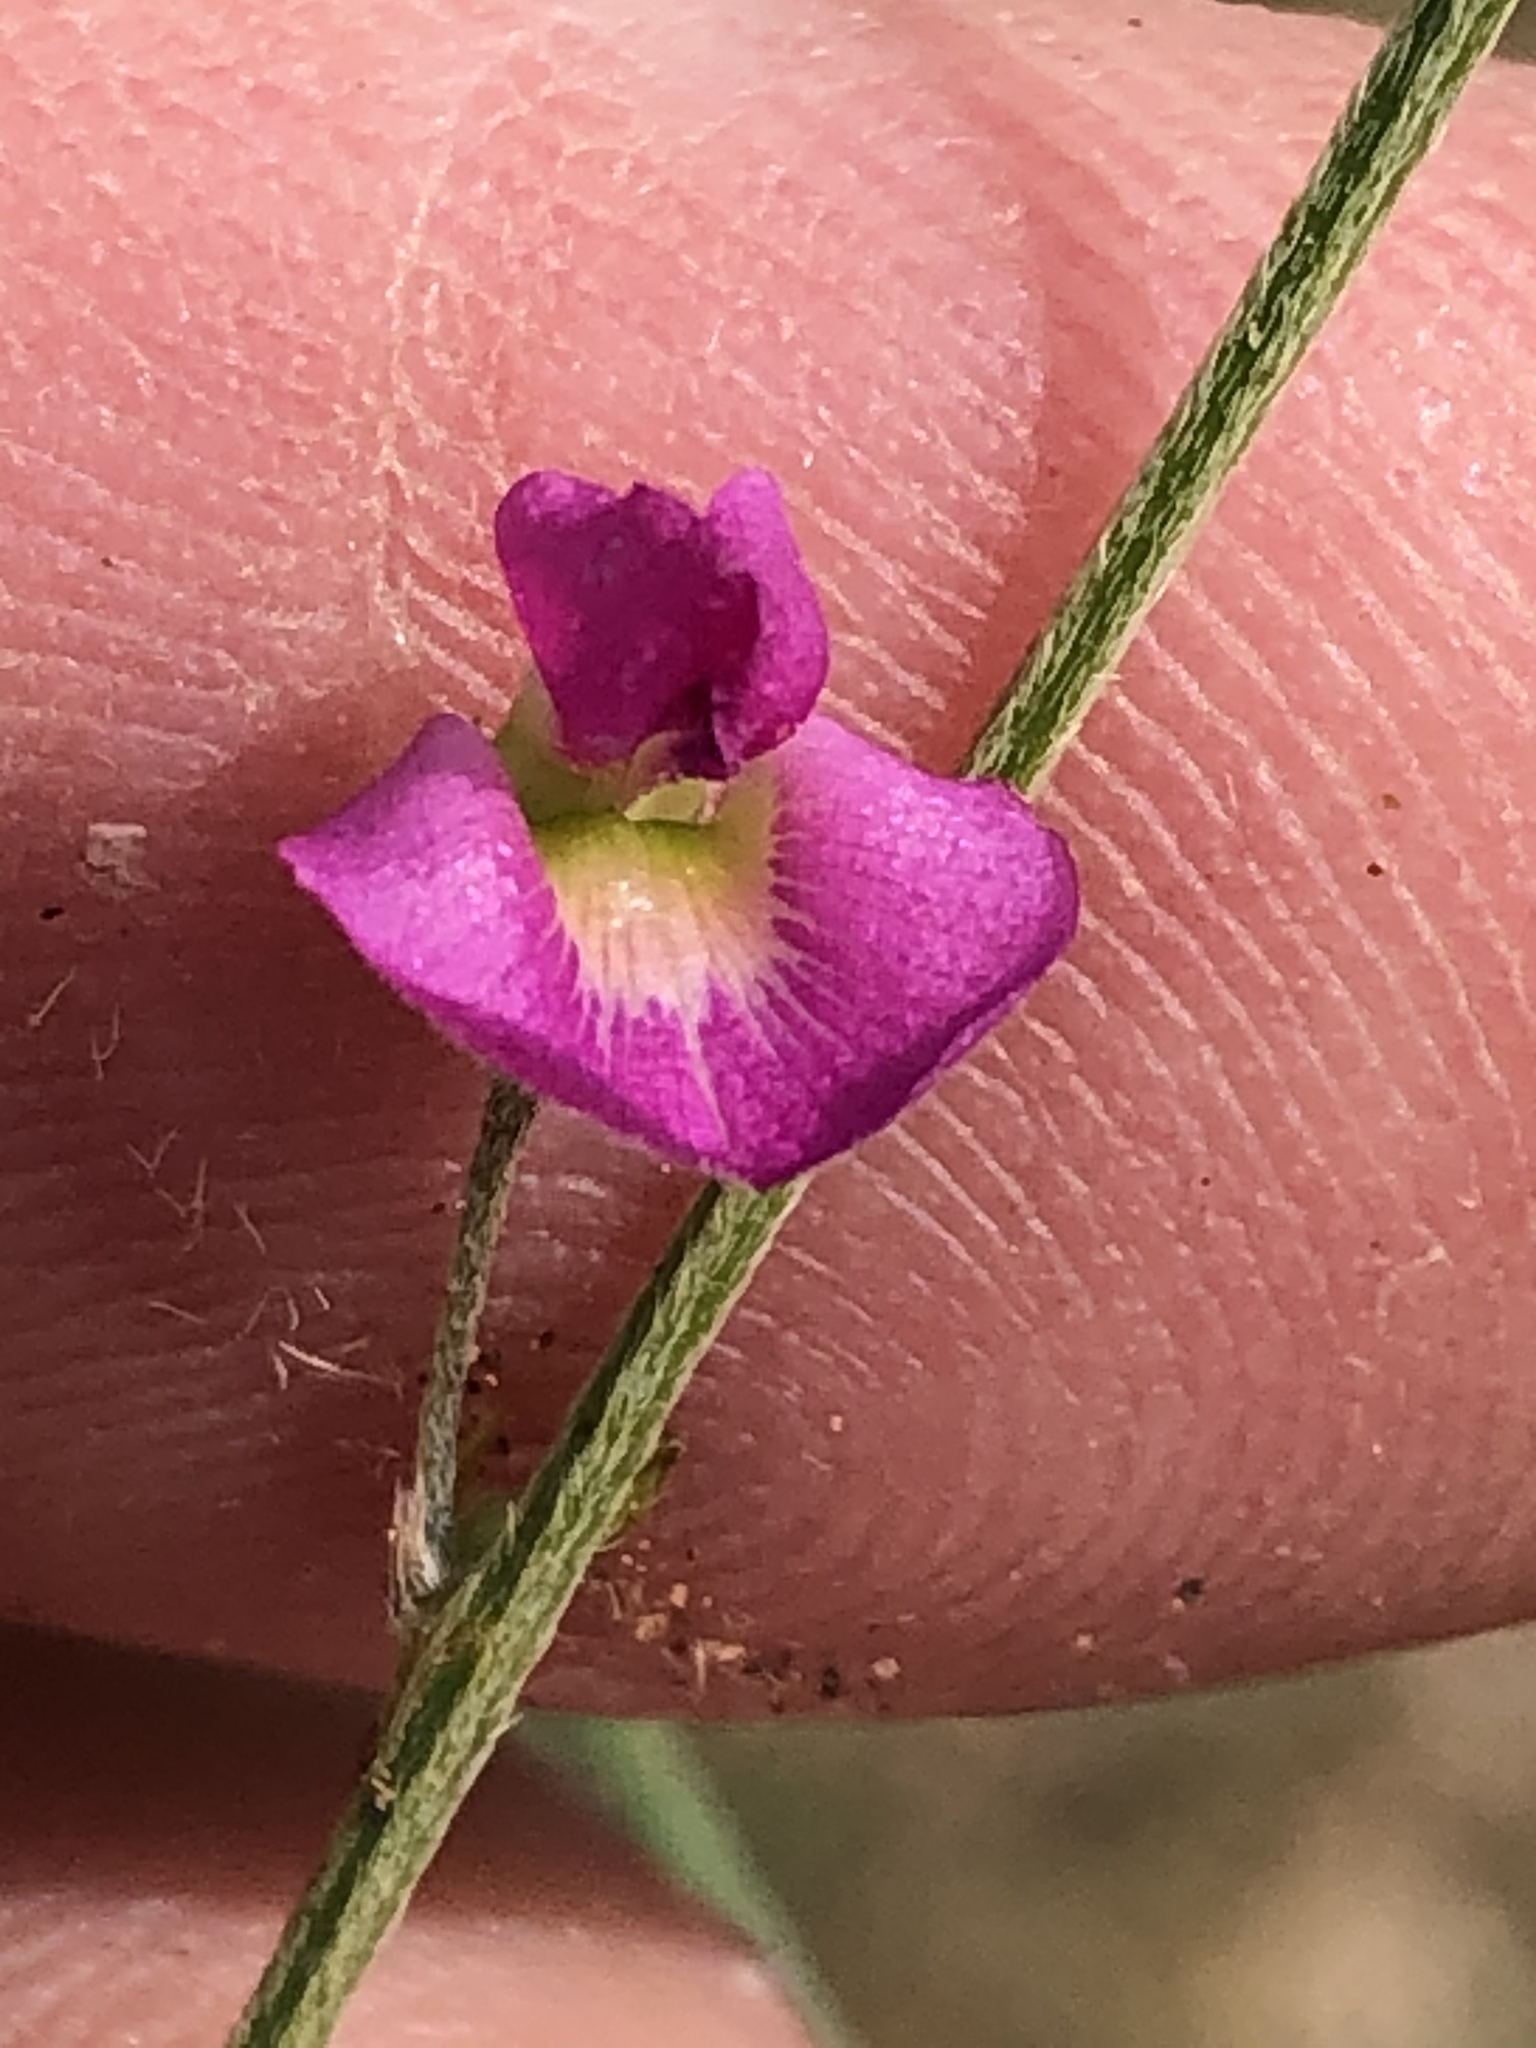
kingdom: Plantae
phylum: Tracheophyta
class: Magnoliopsida
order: Fabales
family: Fabaceae
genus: Tephrosia
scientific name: Tephrosia dregeana
